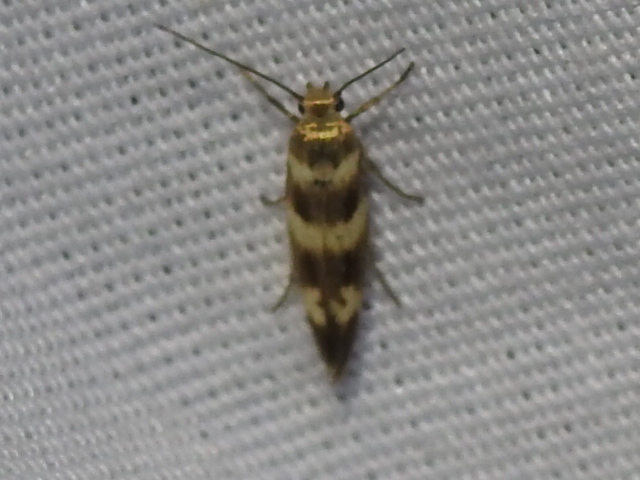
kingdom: Animalia
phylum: Arthropoda
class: Insecta
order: Lepidoptera
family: Scythrididae
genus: Scythris
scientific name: Scythris trivinctella
